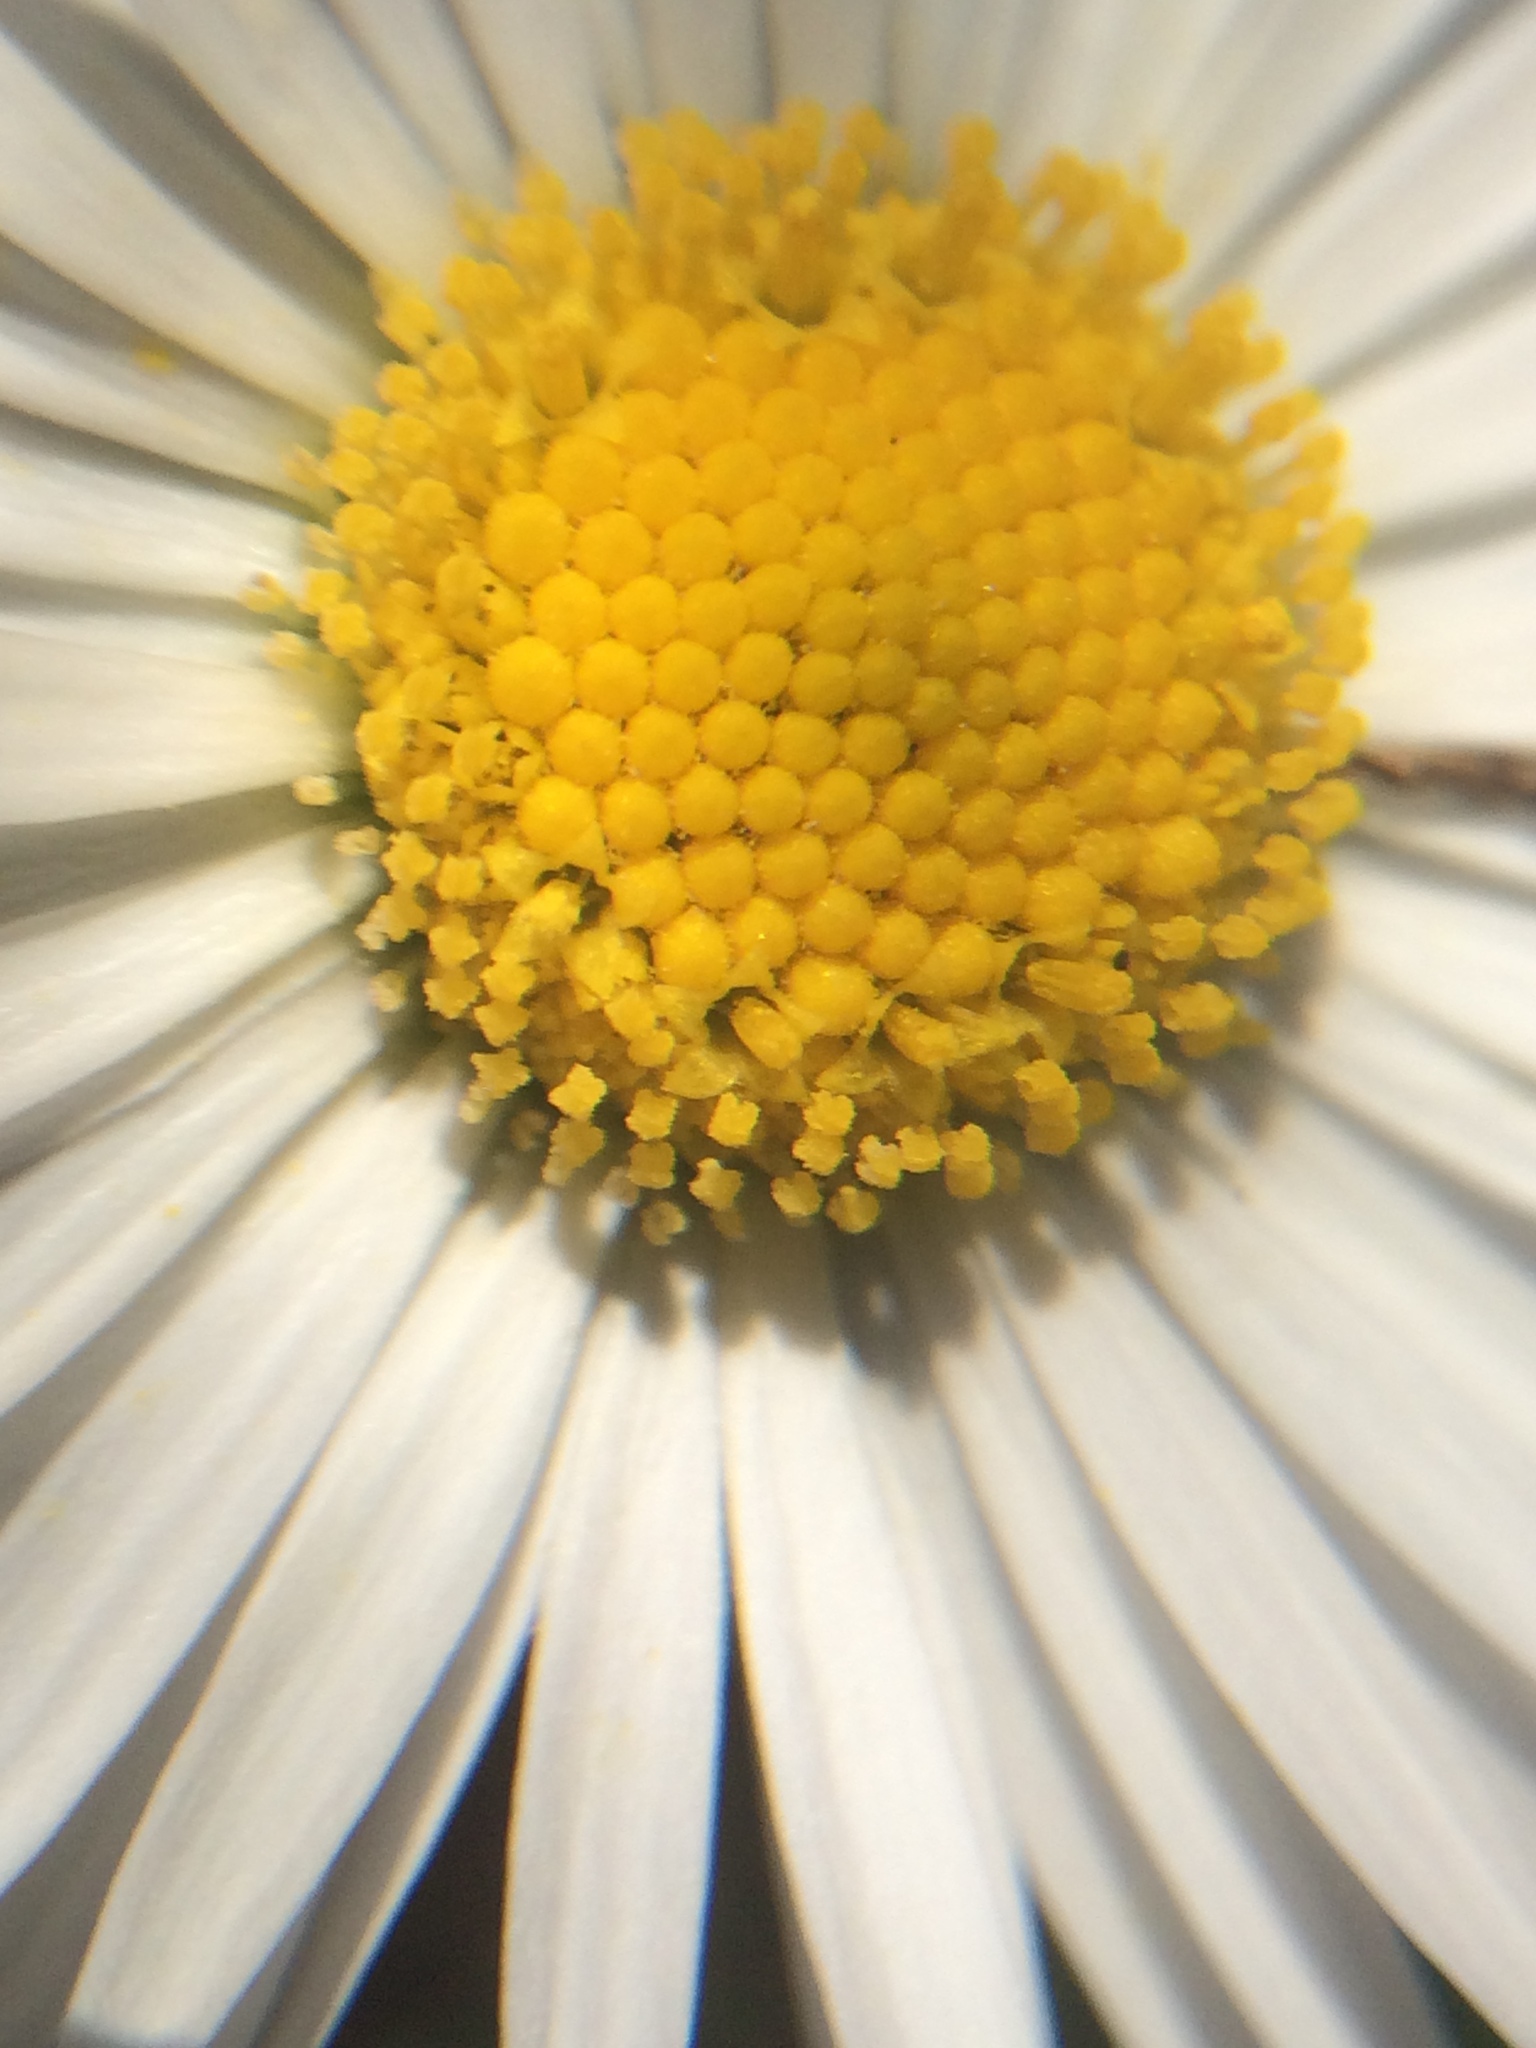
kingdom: Plantae
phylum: Tracheophyta
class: Magnoliopsida
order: Asterales
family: Asteraceae
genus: Bellis
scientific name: Bellis perennis
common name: Lawndaisy
